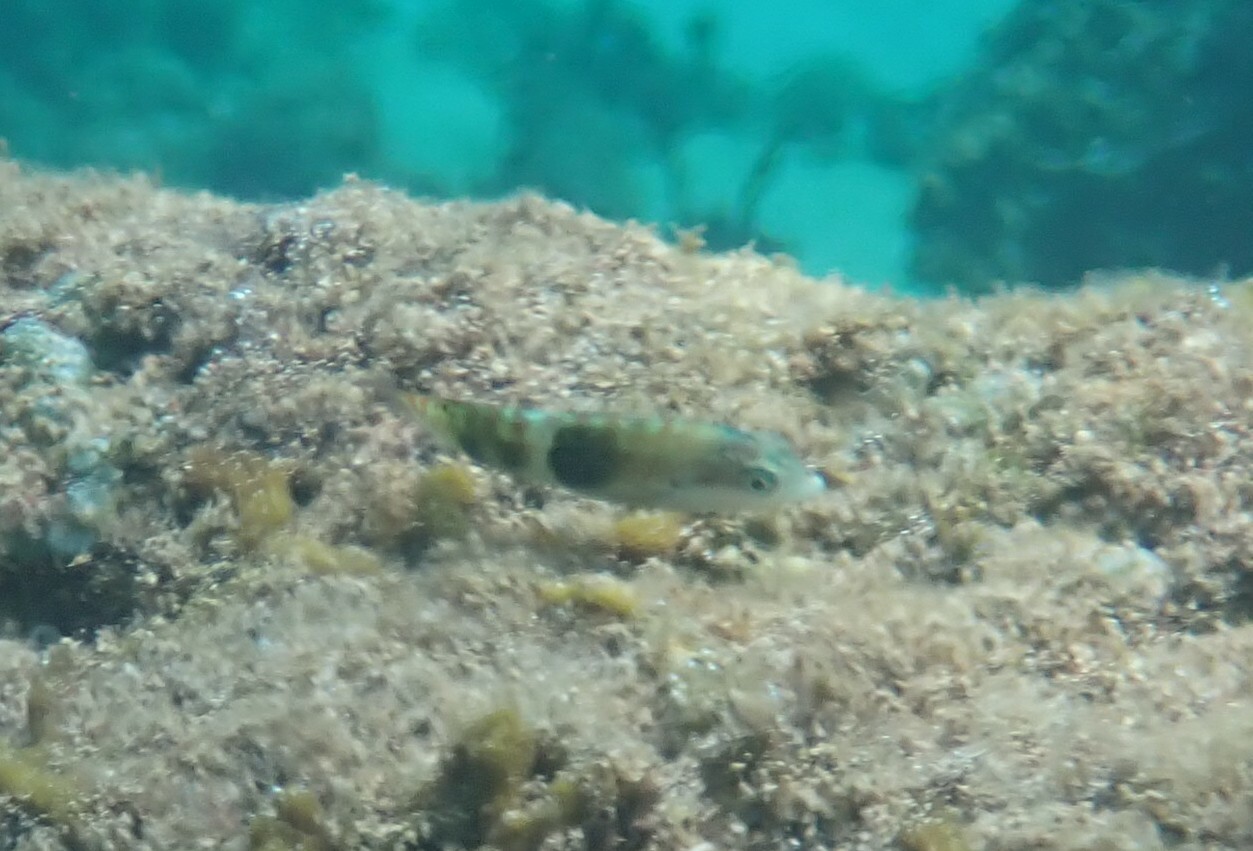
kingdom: Animalia
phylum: Chordata
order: Perciformes
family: Labridae
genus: Thalassoma
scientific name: Thalassoma nigrofasciatum
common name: Black-barred wrasse
